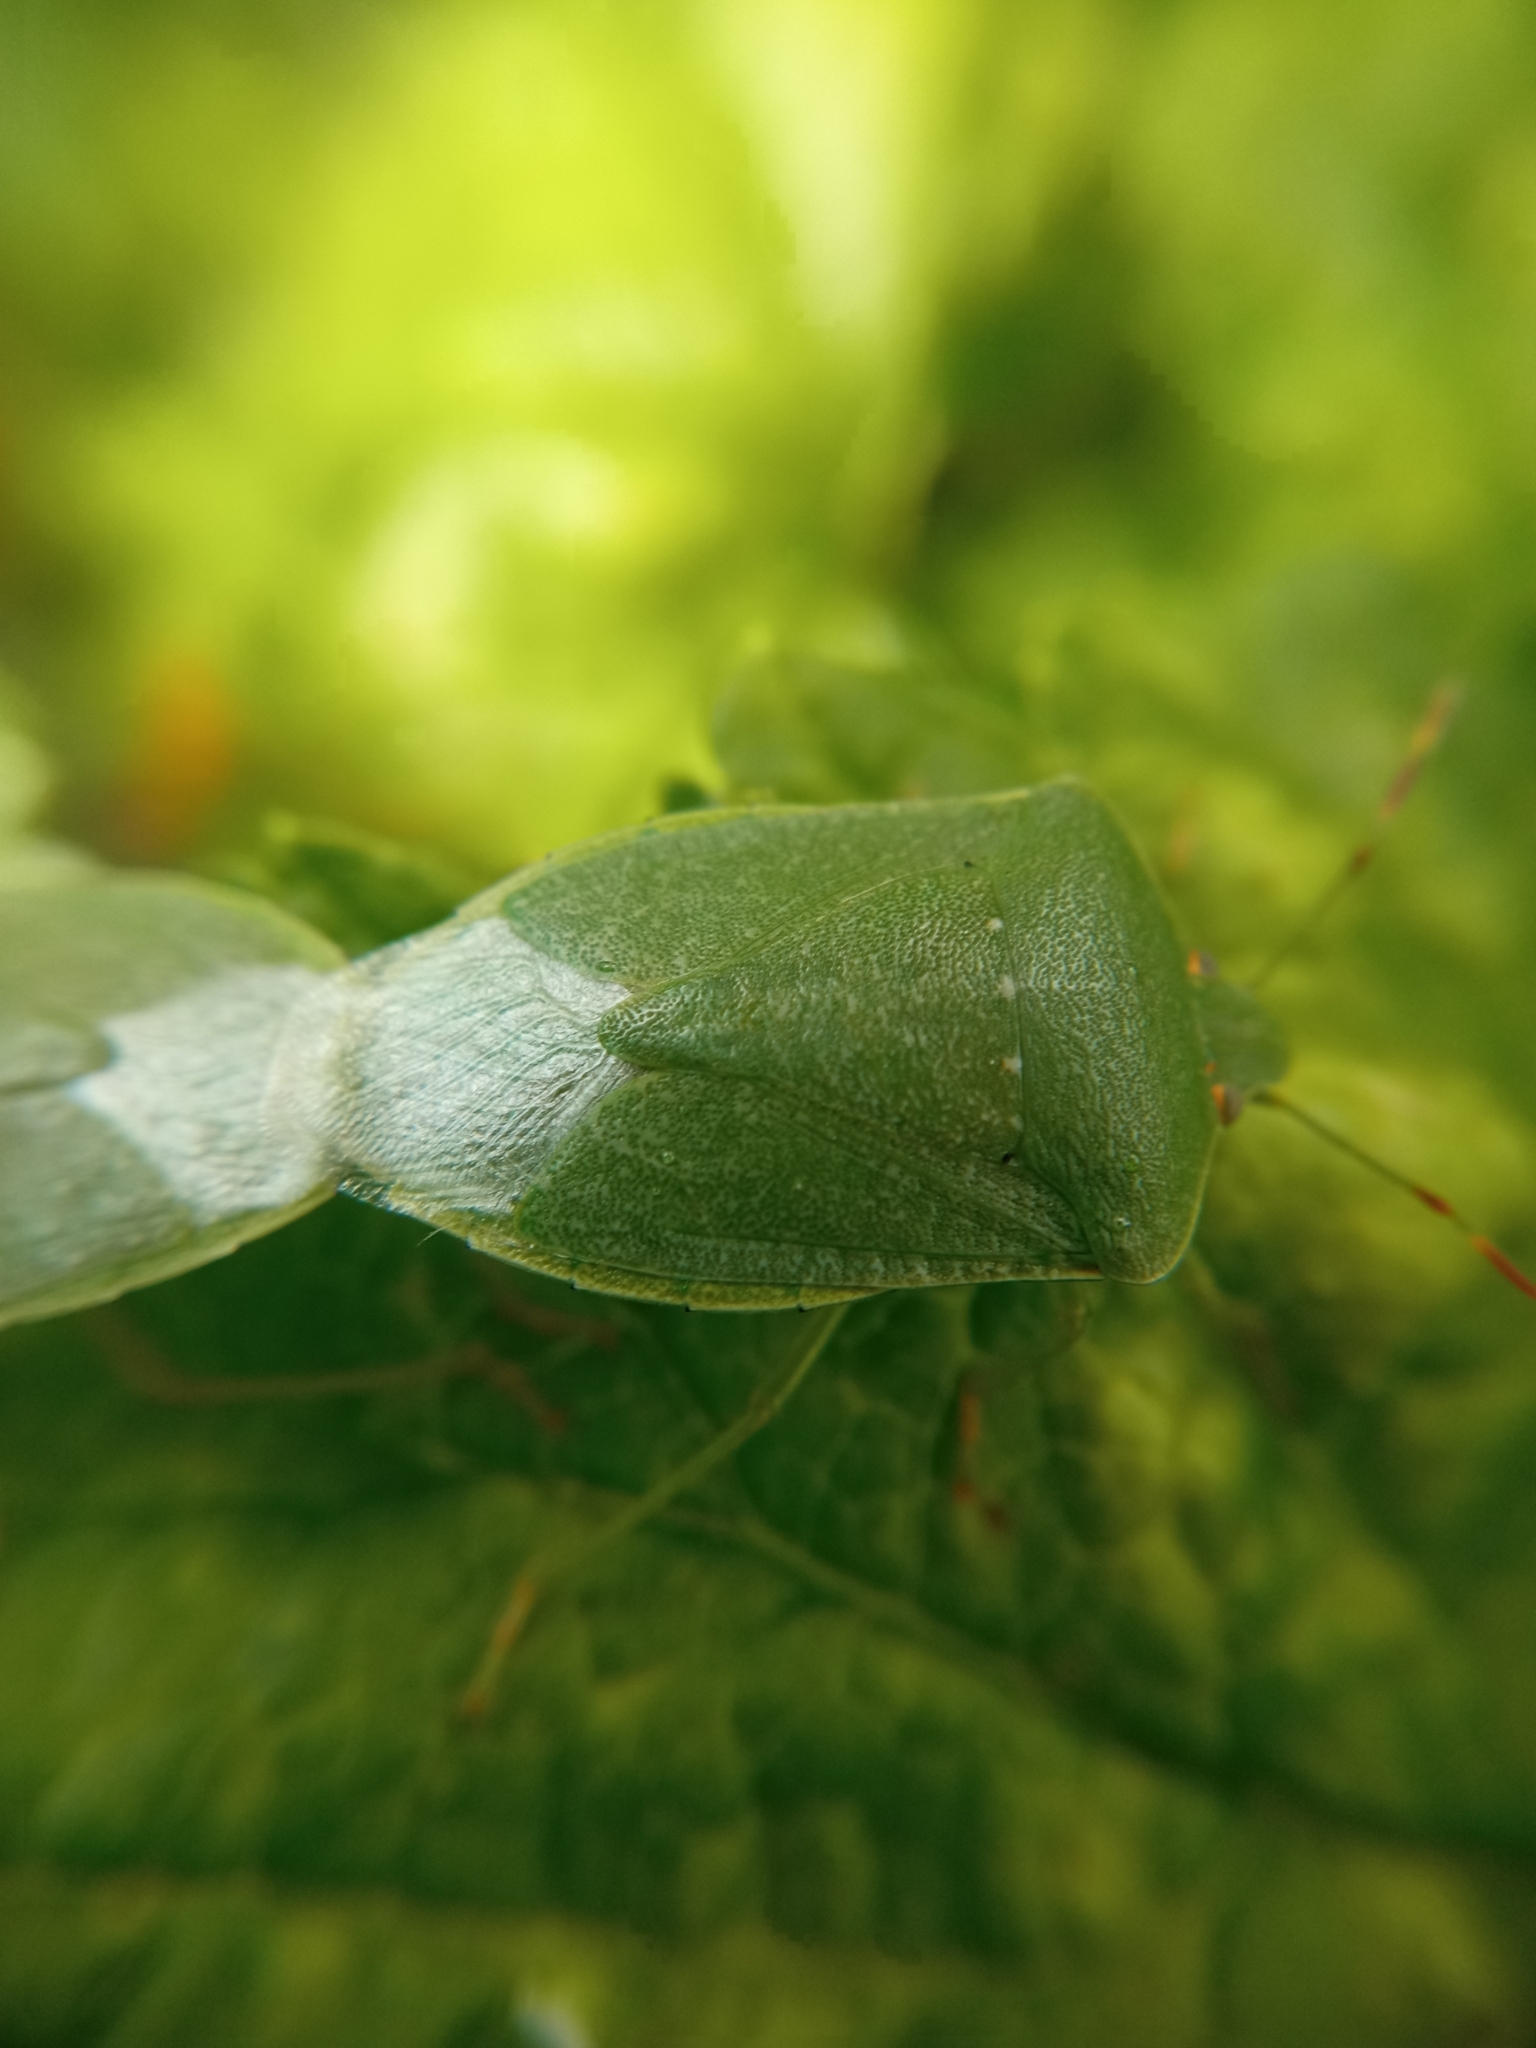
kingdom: Animalia
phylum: Arthropoda
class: Insecta
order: Hemiptera
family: Pentatomidae
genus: Nezara
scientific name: Nezara viridula
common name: Southern green stink bug
